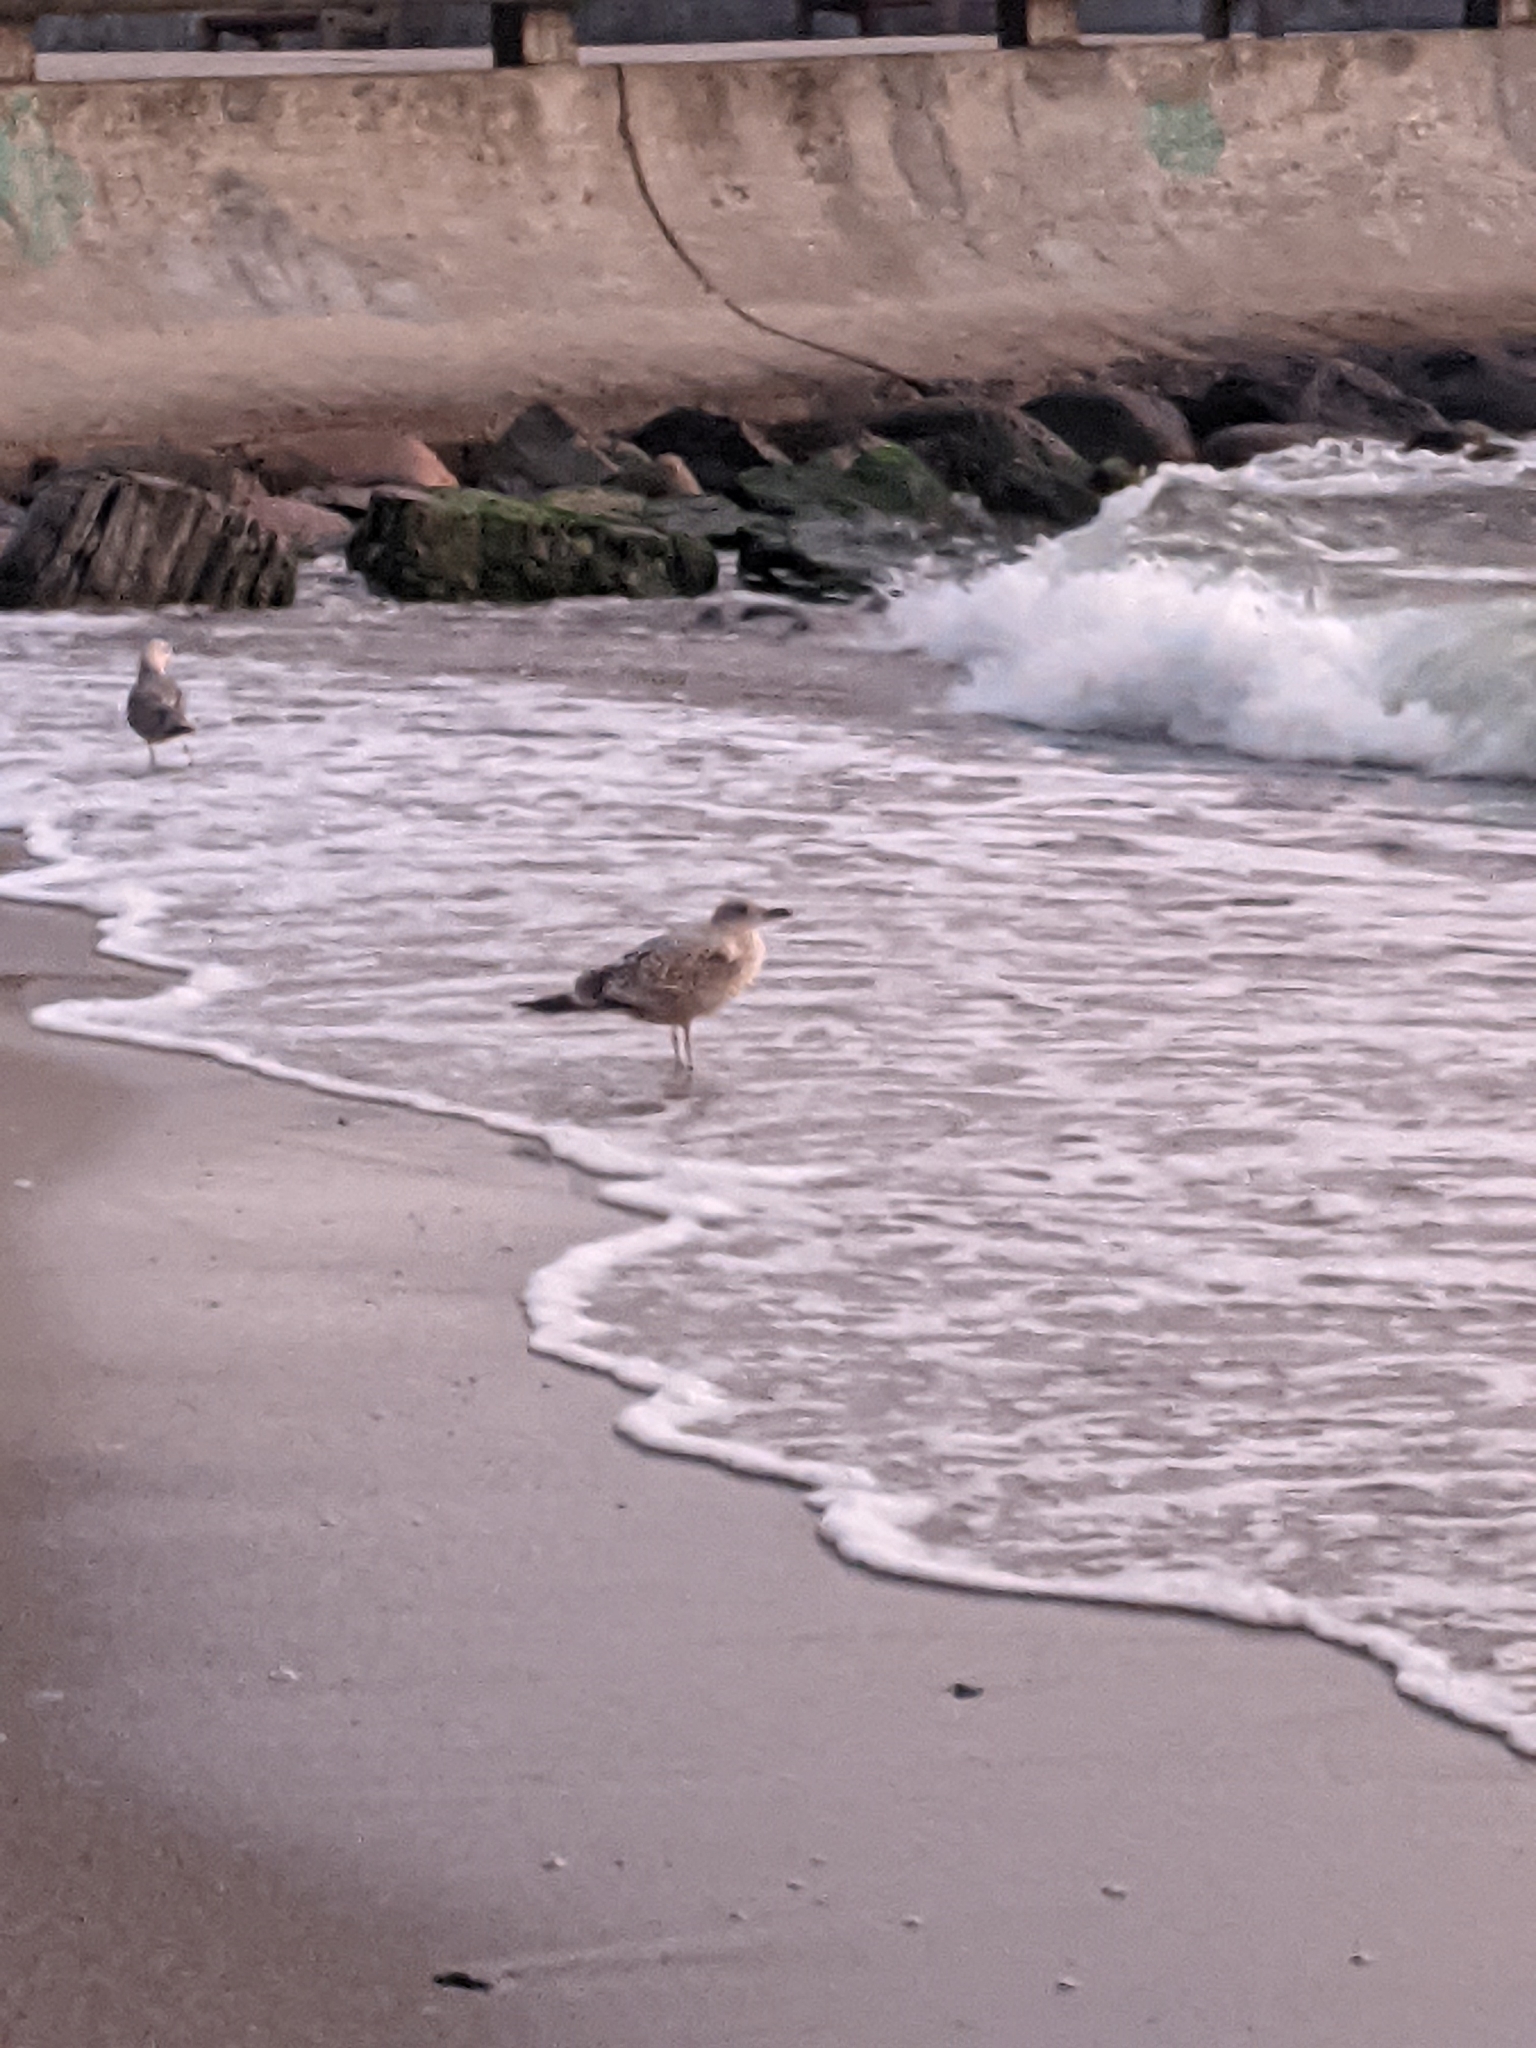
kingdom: Animalia
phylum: Chordata
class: Aves
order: Charadriiformes
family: Laridae
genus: Larus
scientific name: Larus argentatus
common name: Herring gull
